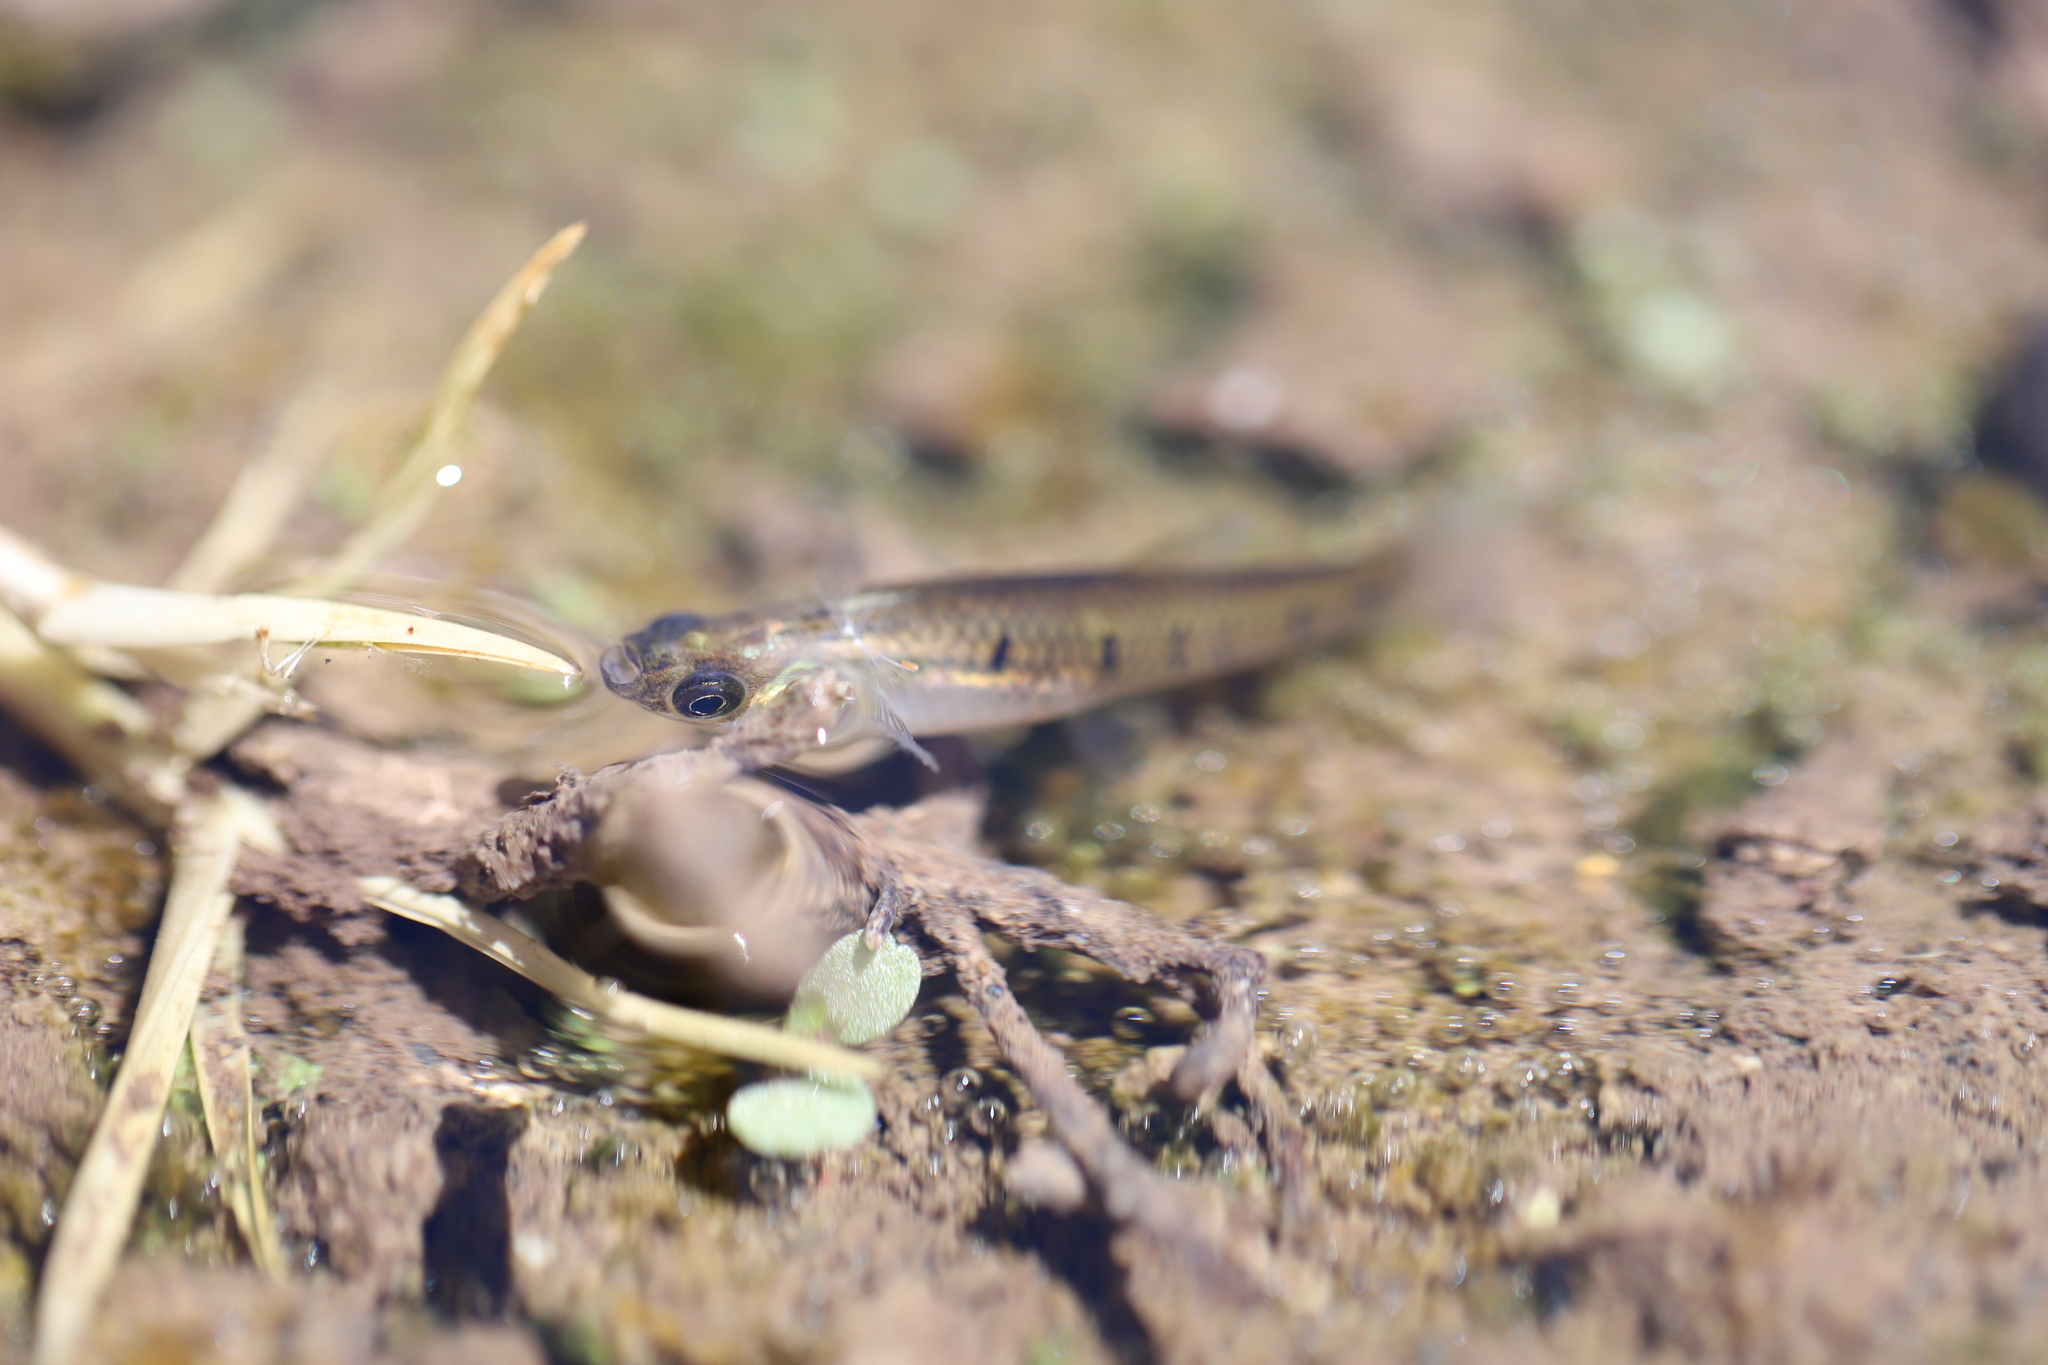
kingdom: Animalia
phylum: Chordata
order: Cyprinodontiformes
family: Poeciliidae
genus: Cnesterodon
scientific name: Cnesterodon decemmaculatus
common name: Ten spotted live-bearer
